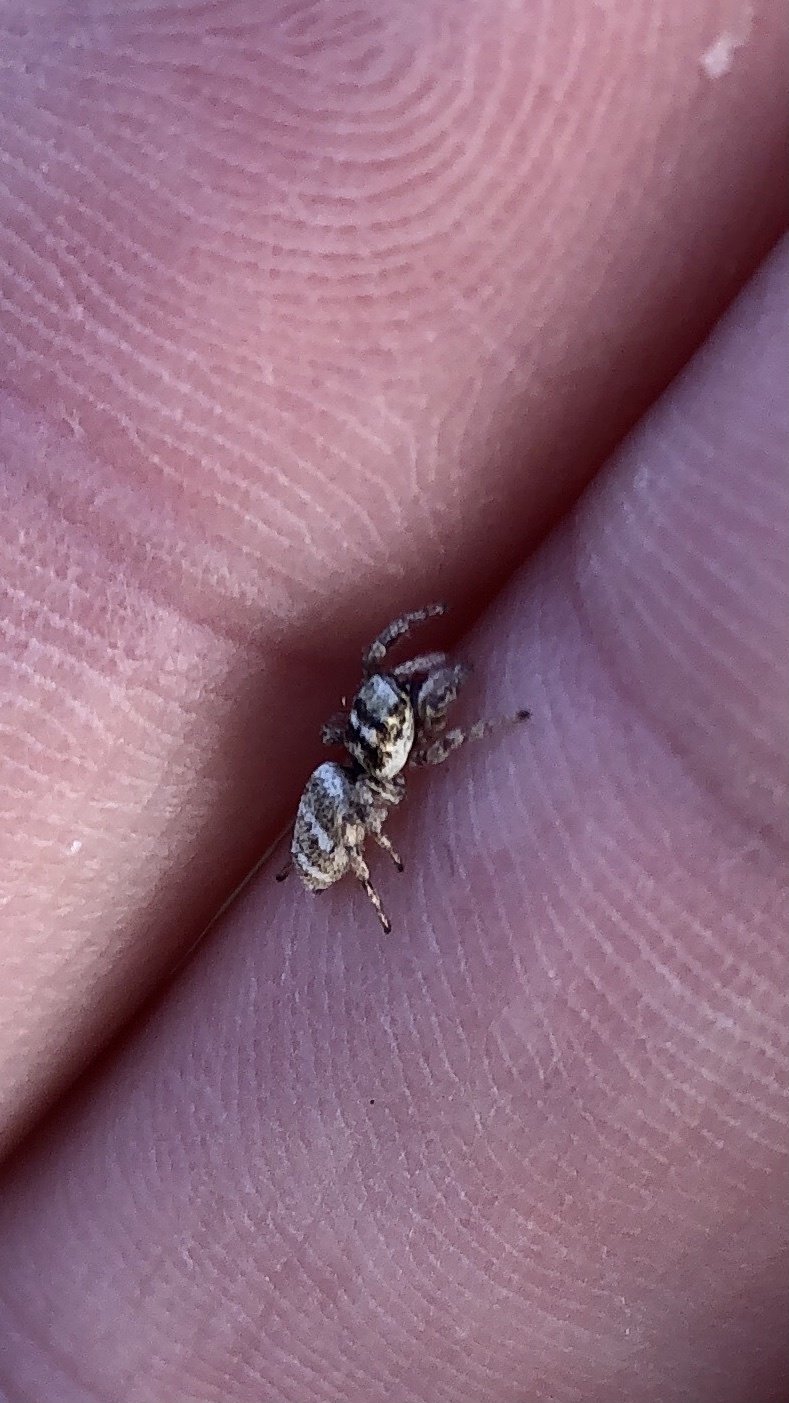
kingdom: Animalia
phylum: Arthropoda
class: Arachnida
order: Araneae
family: Salticidae
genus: Salticus
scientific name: Salticus scenicus
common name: Zebra jumper
